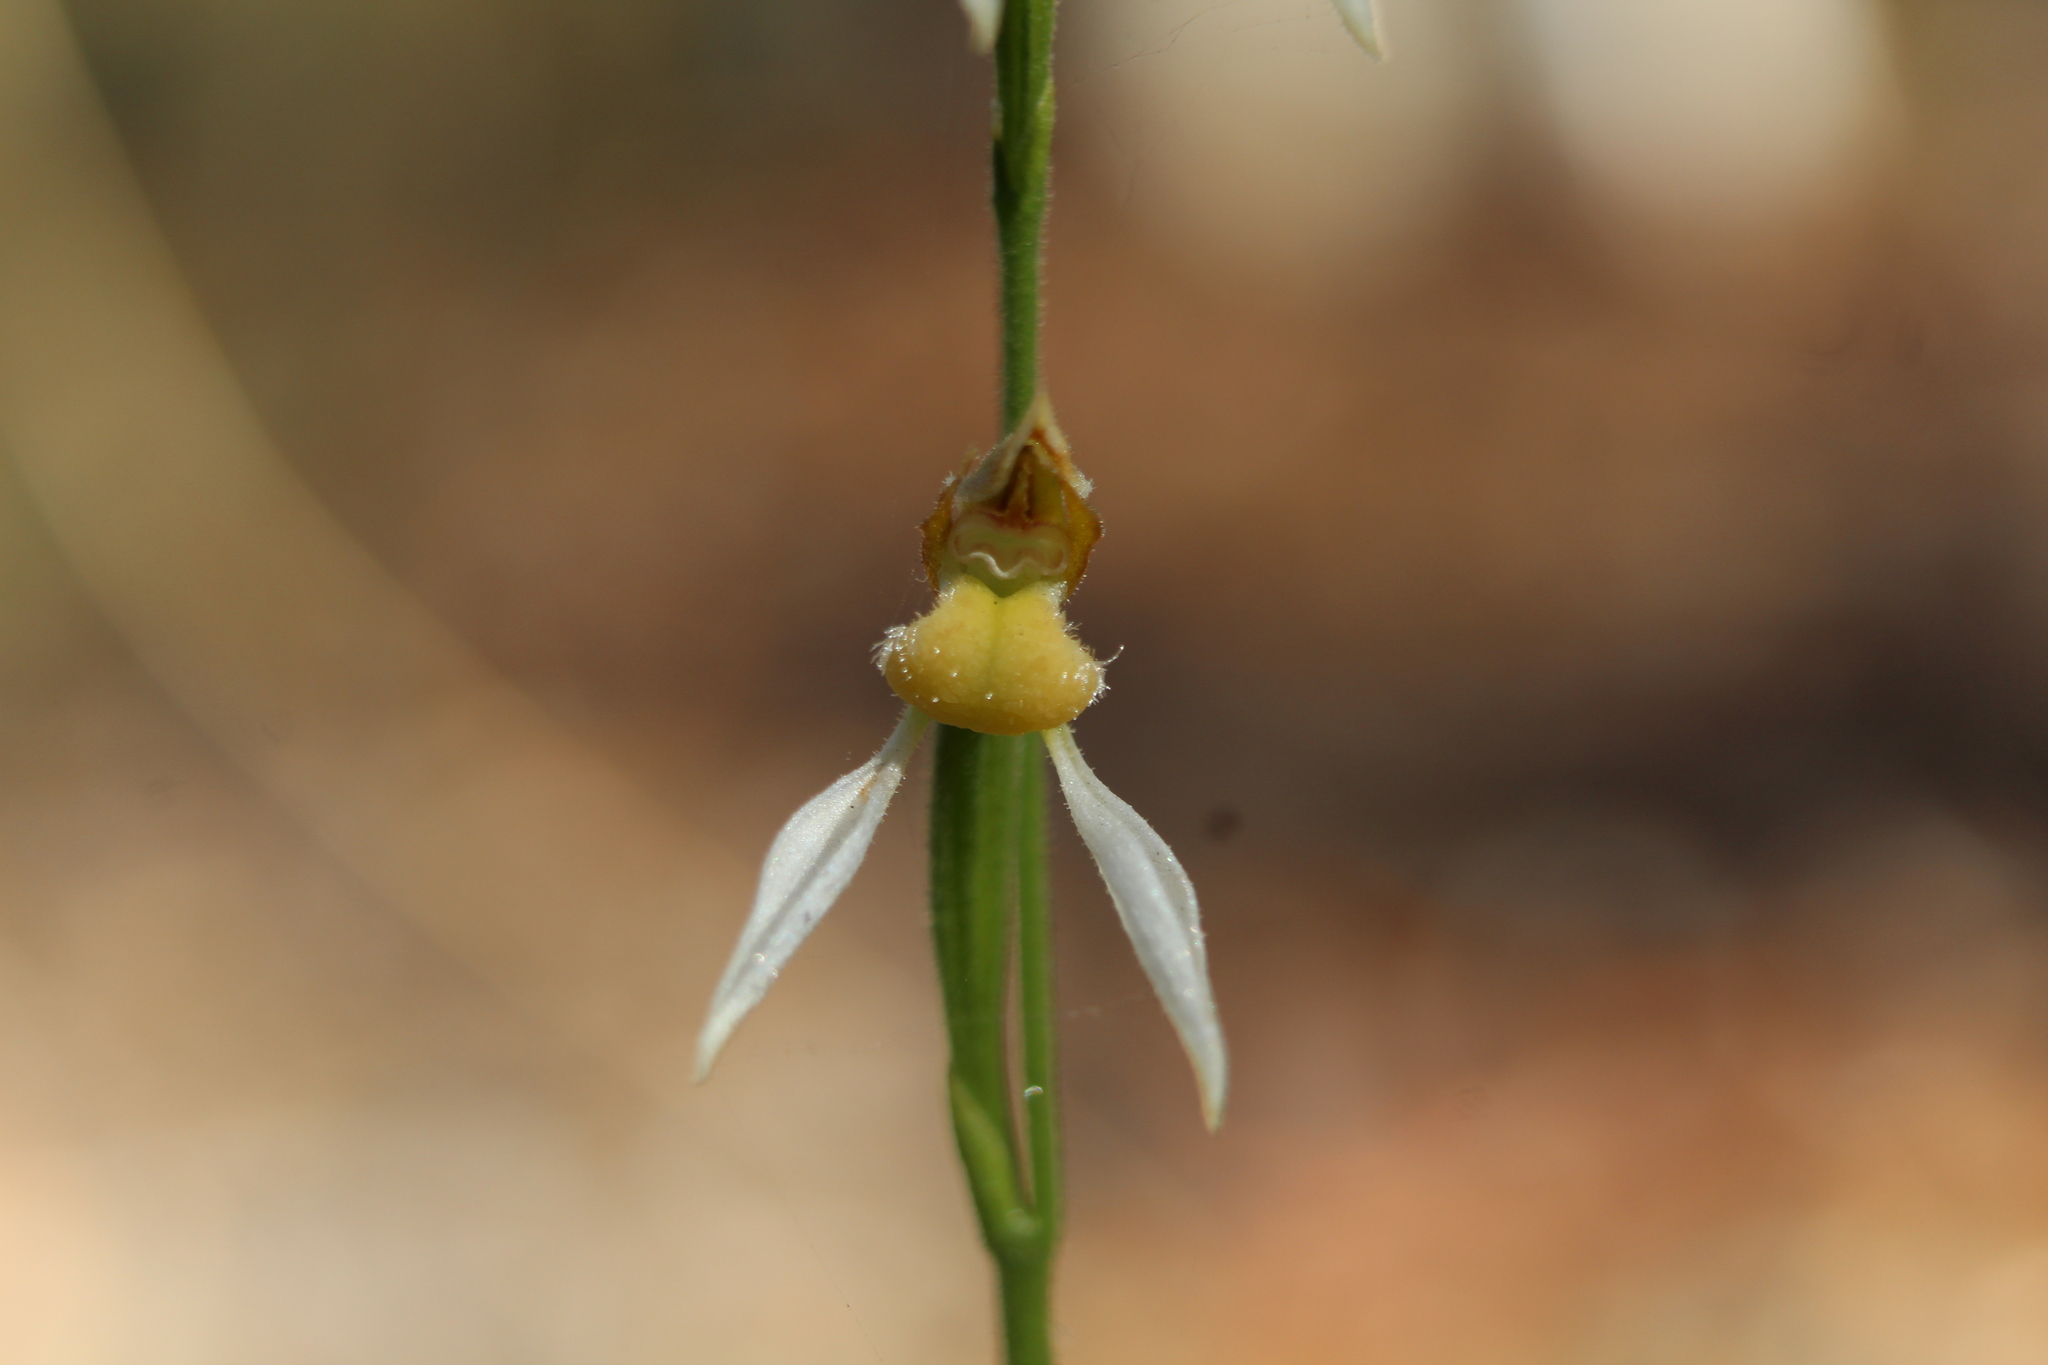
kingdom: Plantae
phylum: Tracheophyta
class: Liliopsida
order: Asparagales
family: Orchidaceae
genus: Eriochilus
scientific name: Eriochilus dilatatus
